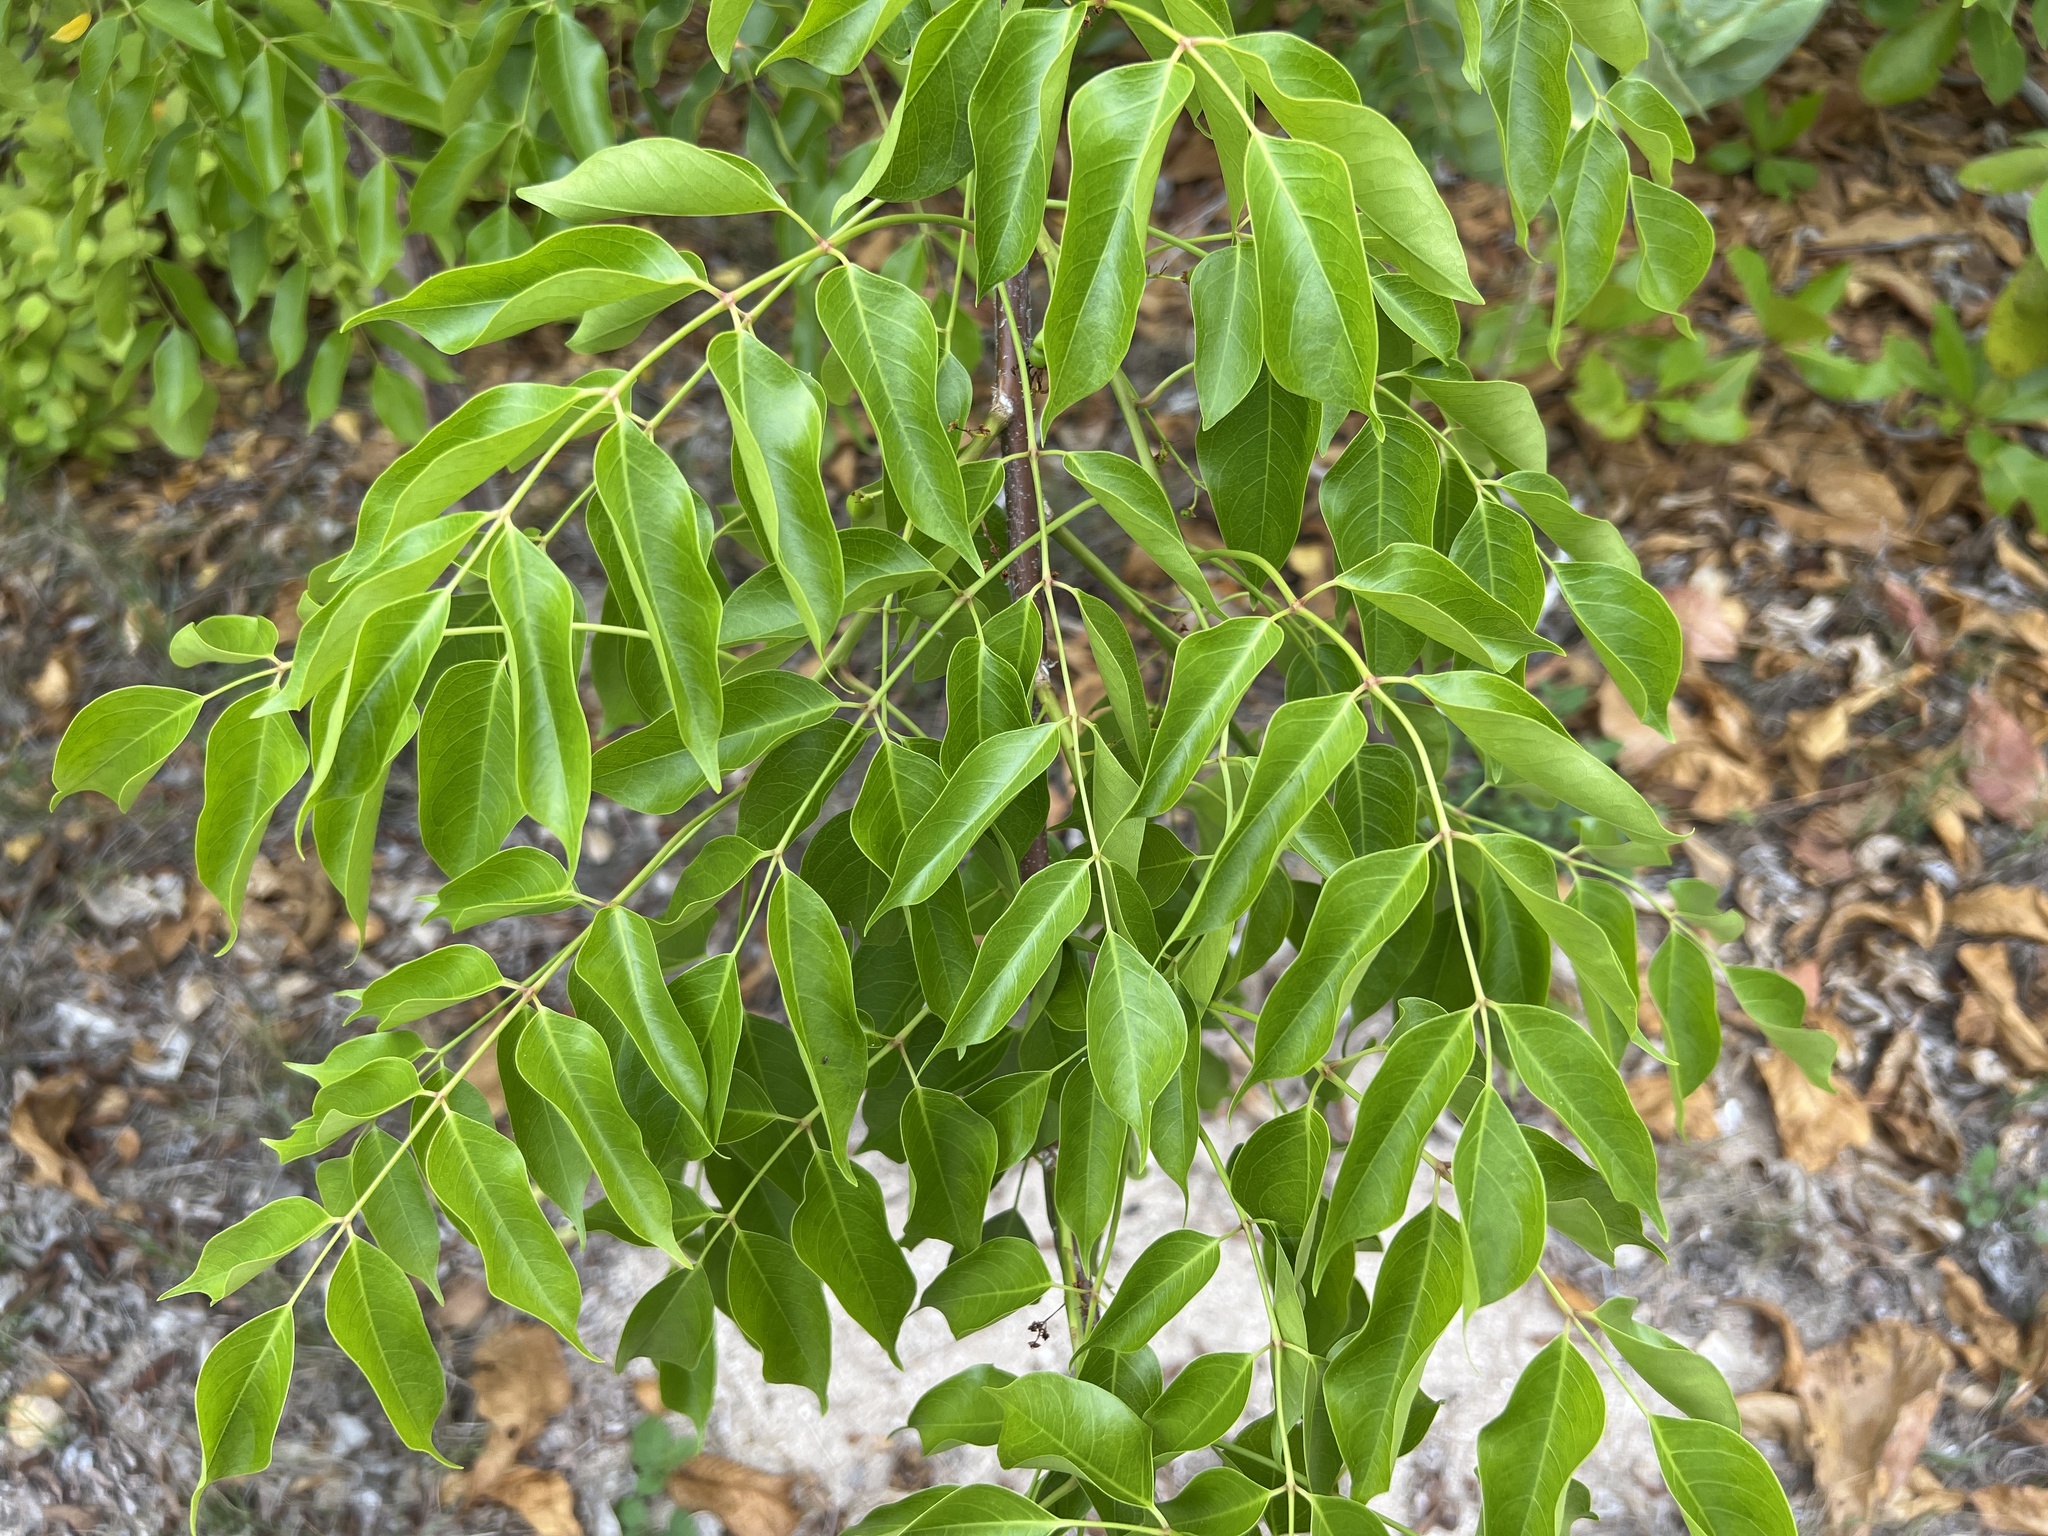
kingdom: Plantae
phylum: Tracheophyta
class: Magnoliopsida
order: Sapindales
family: Burseraceae
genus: Bursera
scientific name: Bursera simaruba
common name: Turpentine tree
